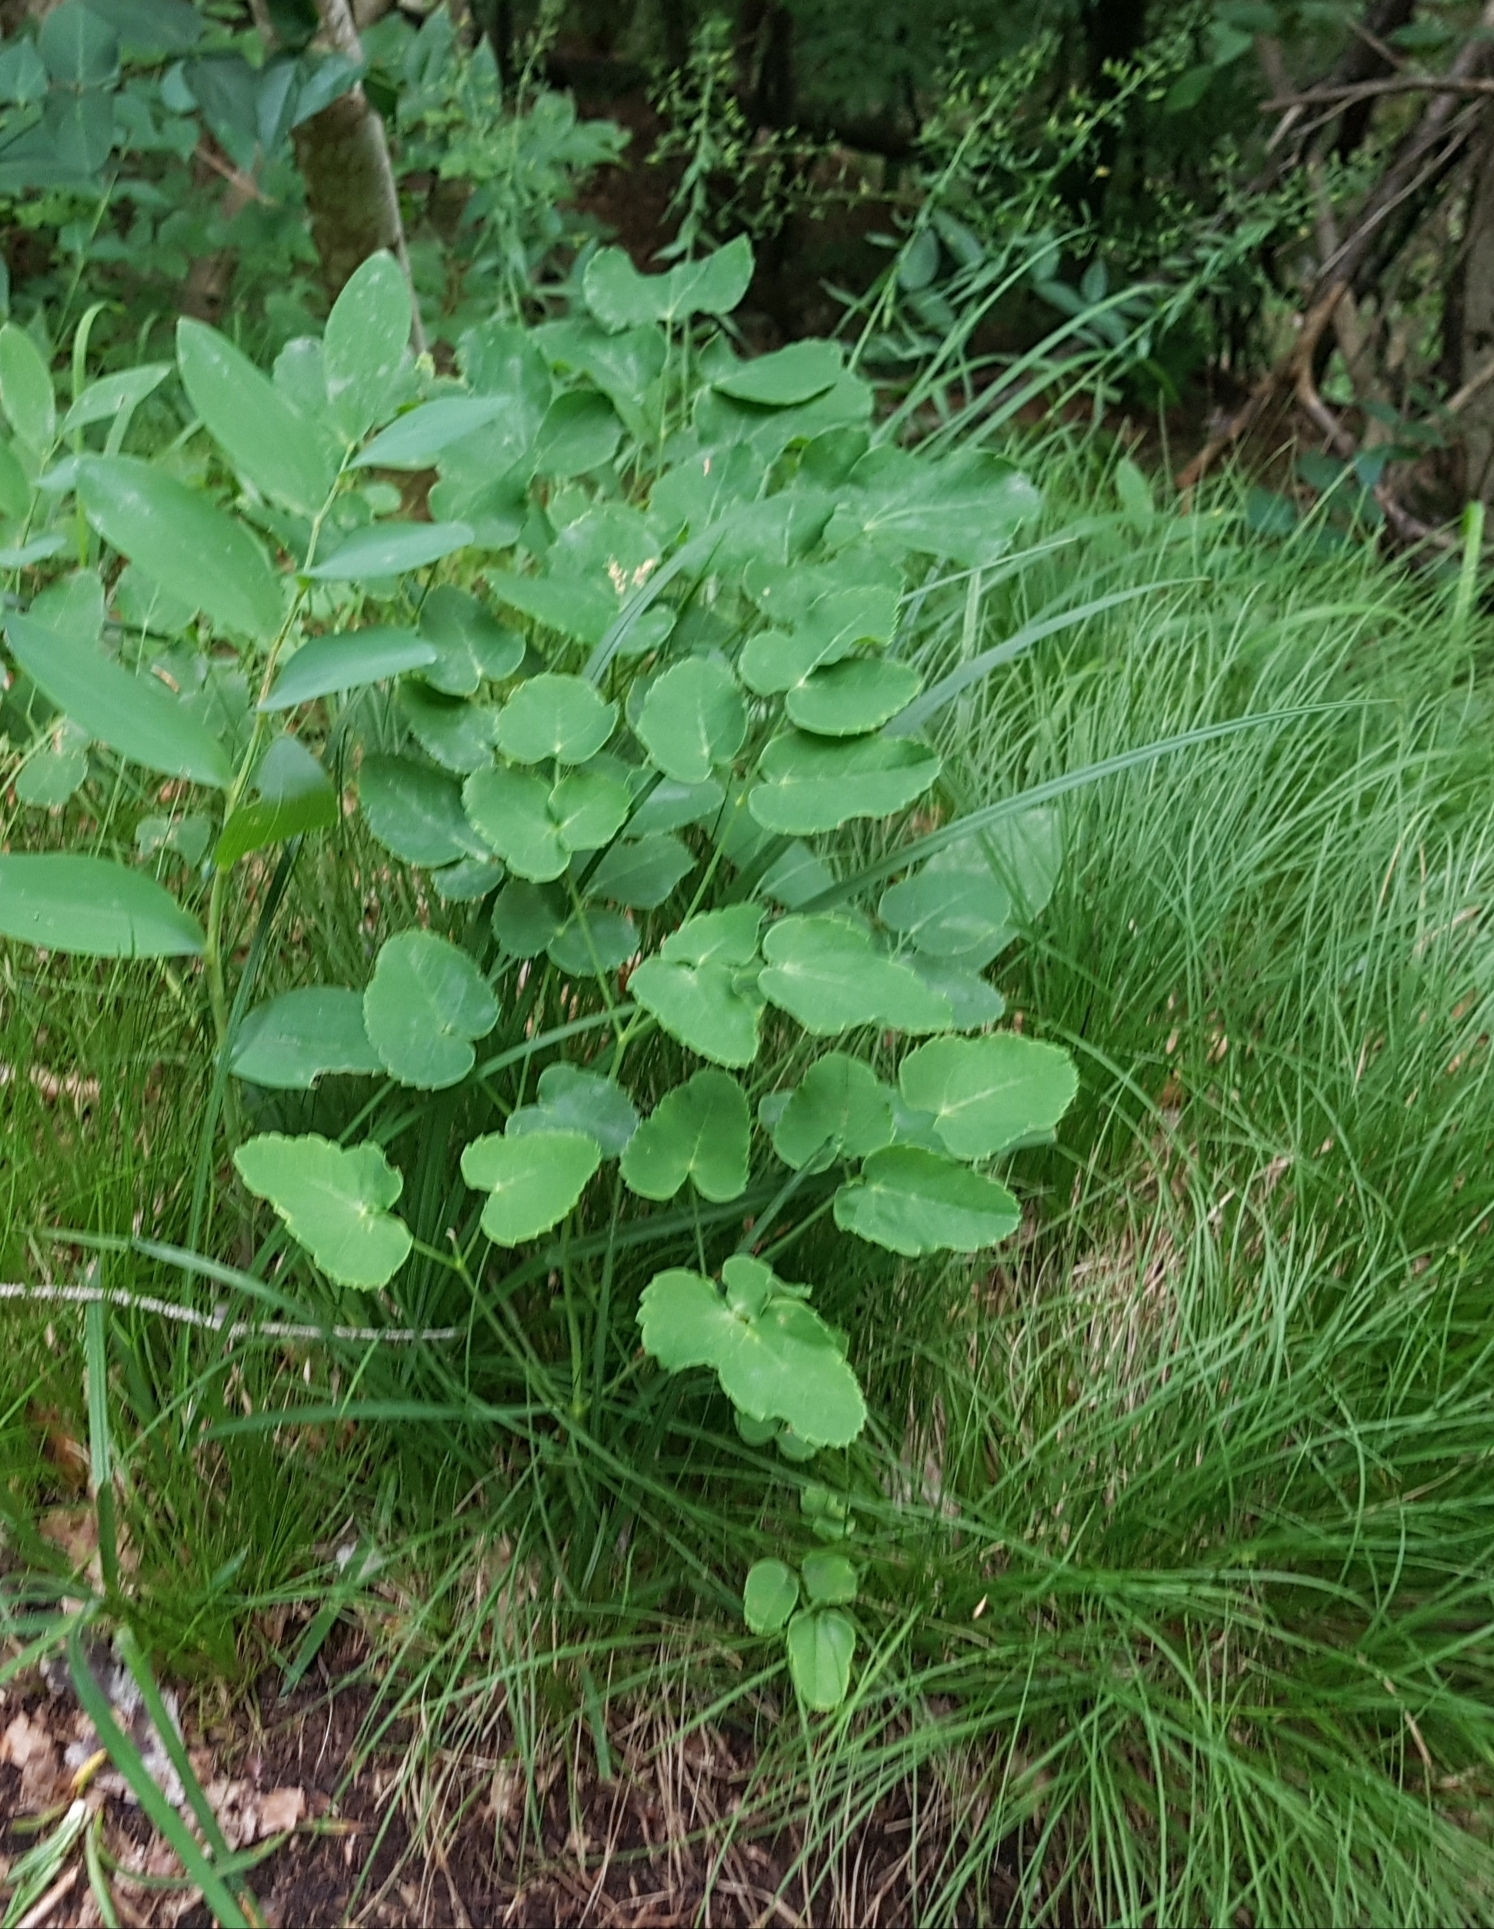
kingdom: Plantae
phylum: Tracheophyta
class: Magnoliopsida
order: Apiales
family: Apiaceae
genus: Laserpitium
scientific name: Laserpitium latifolium
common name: Broadleaf sermountain
